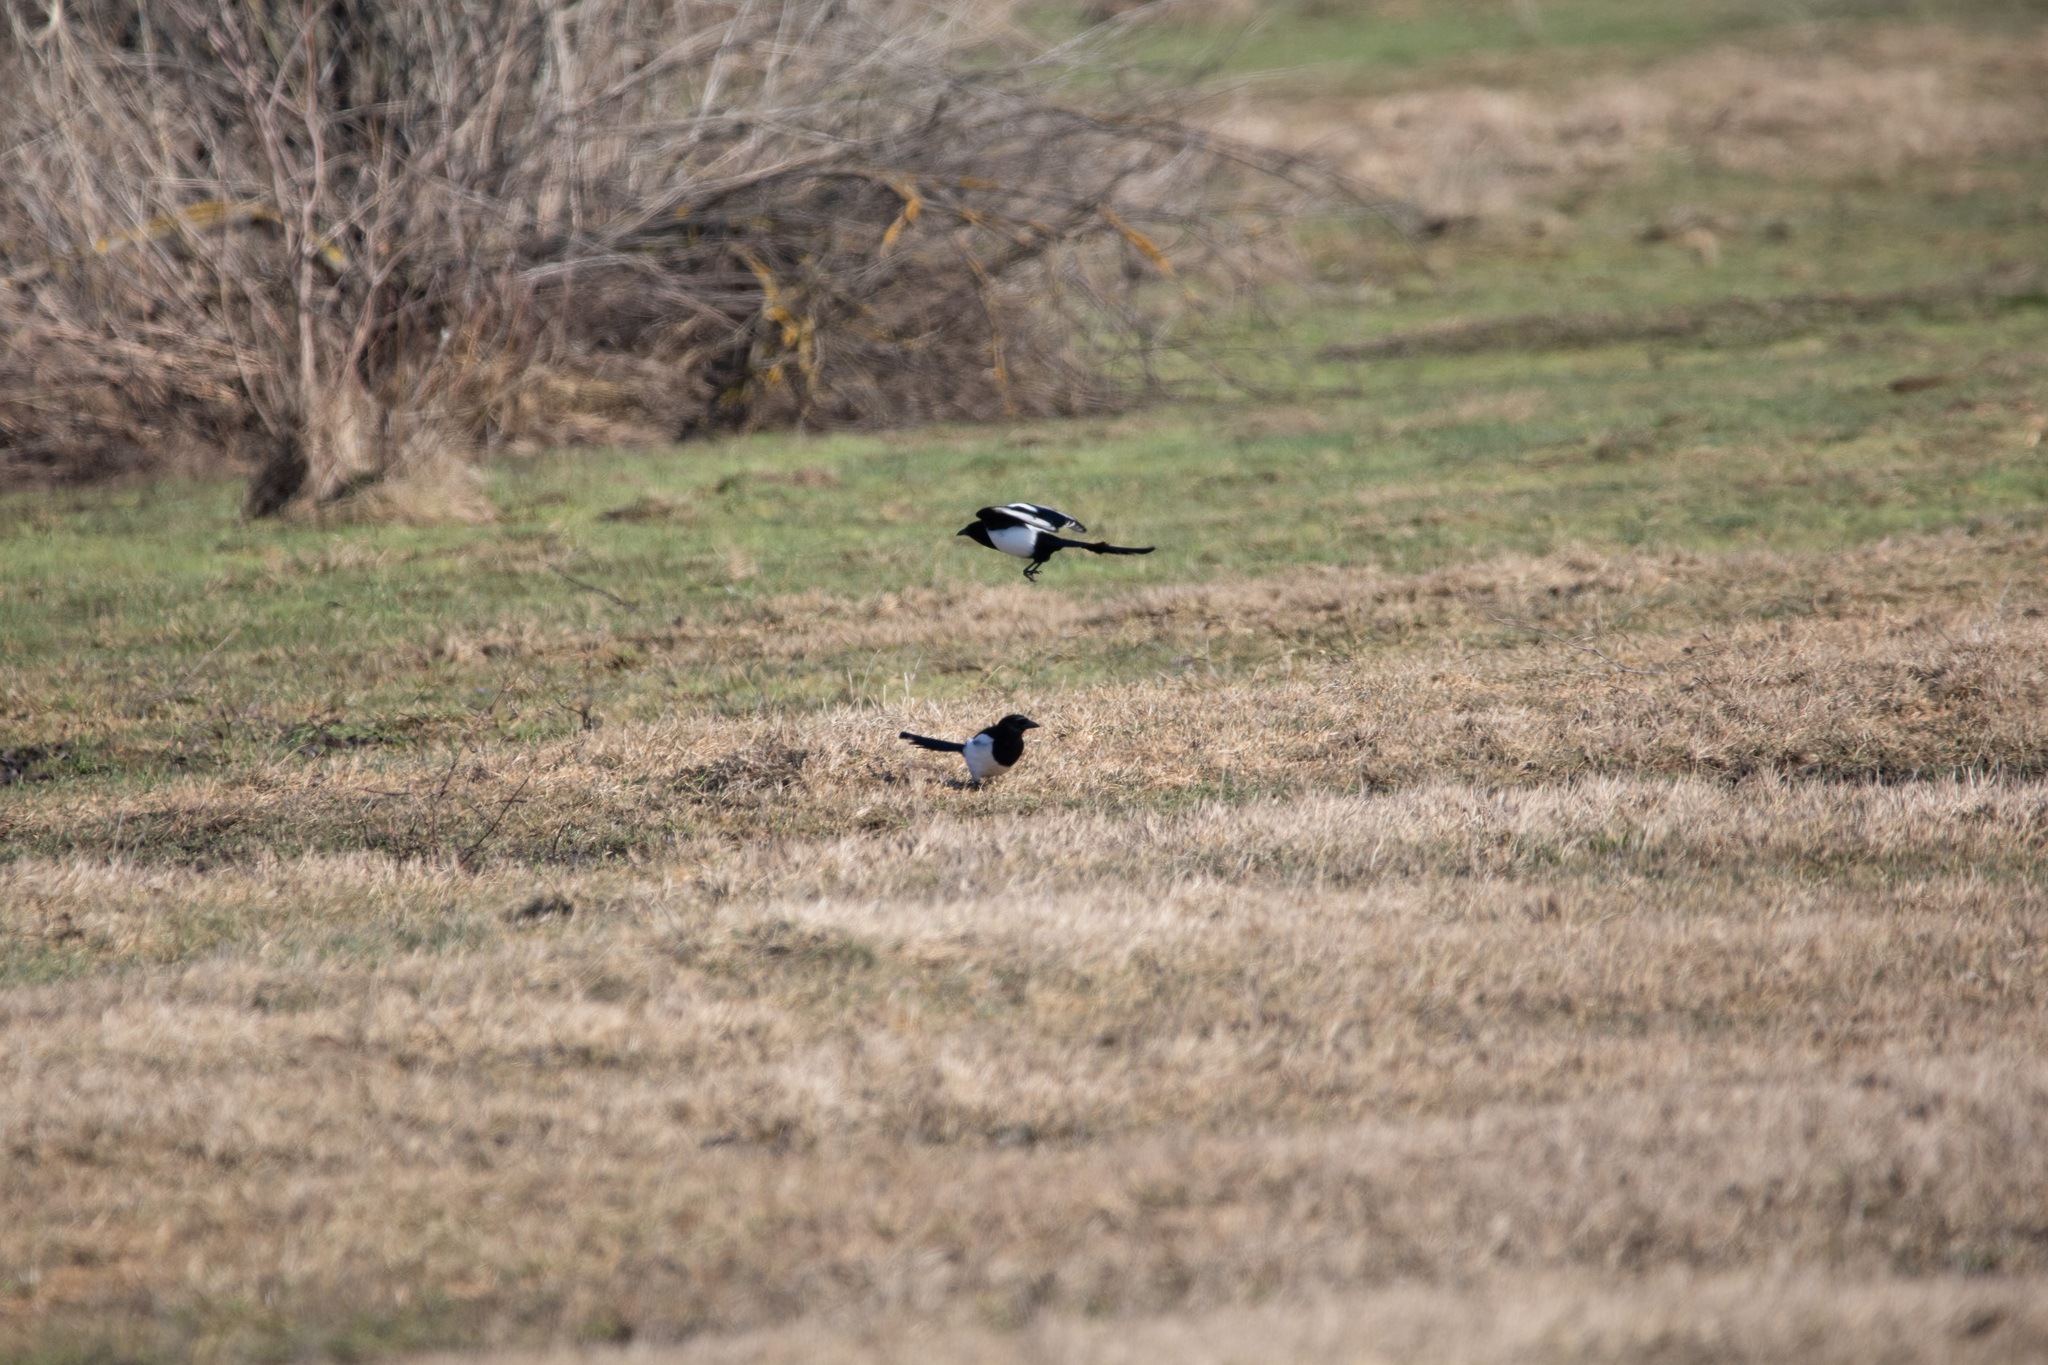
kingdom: Animalia
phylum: Chordata
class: Aves
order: Passeriformes
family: Corvidae
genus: Pica
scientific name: Pica pica
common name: Eurasian magpie
